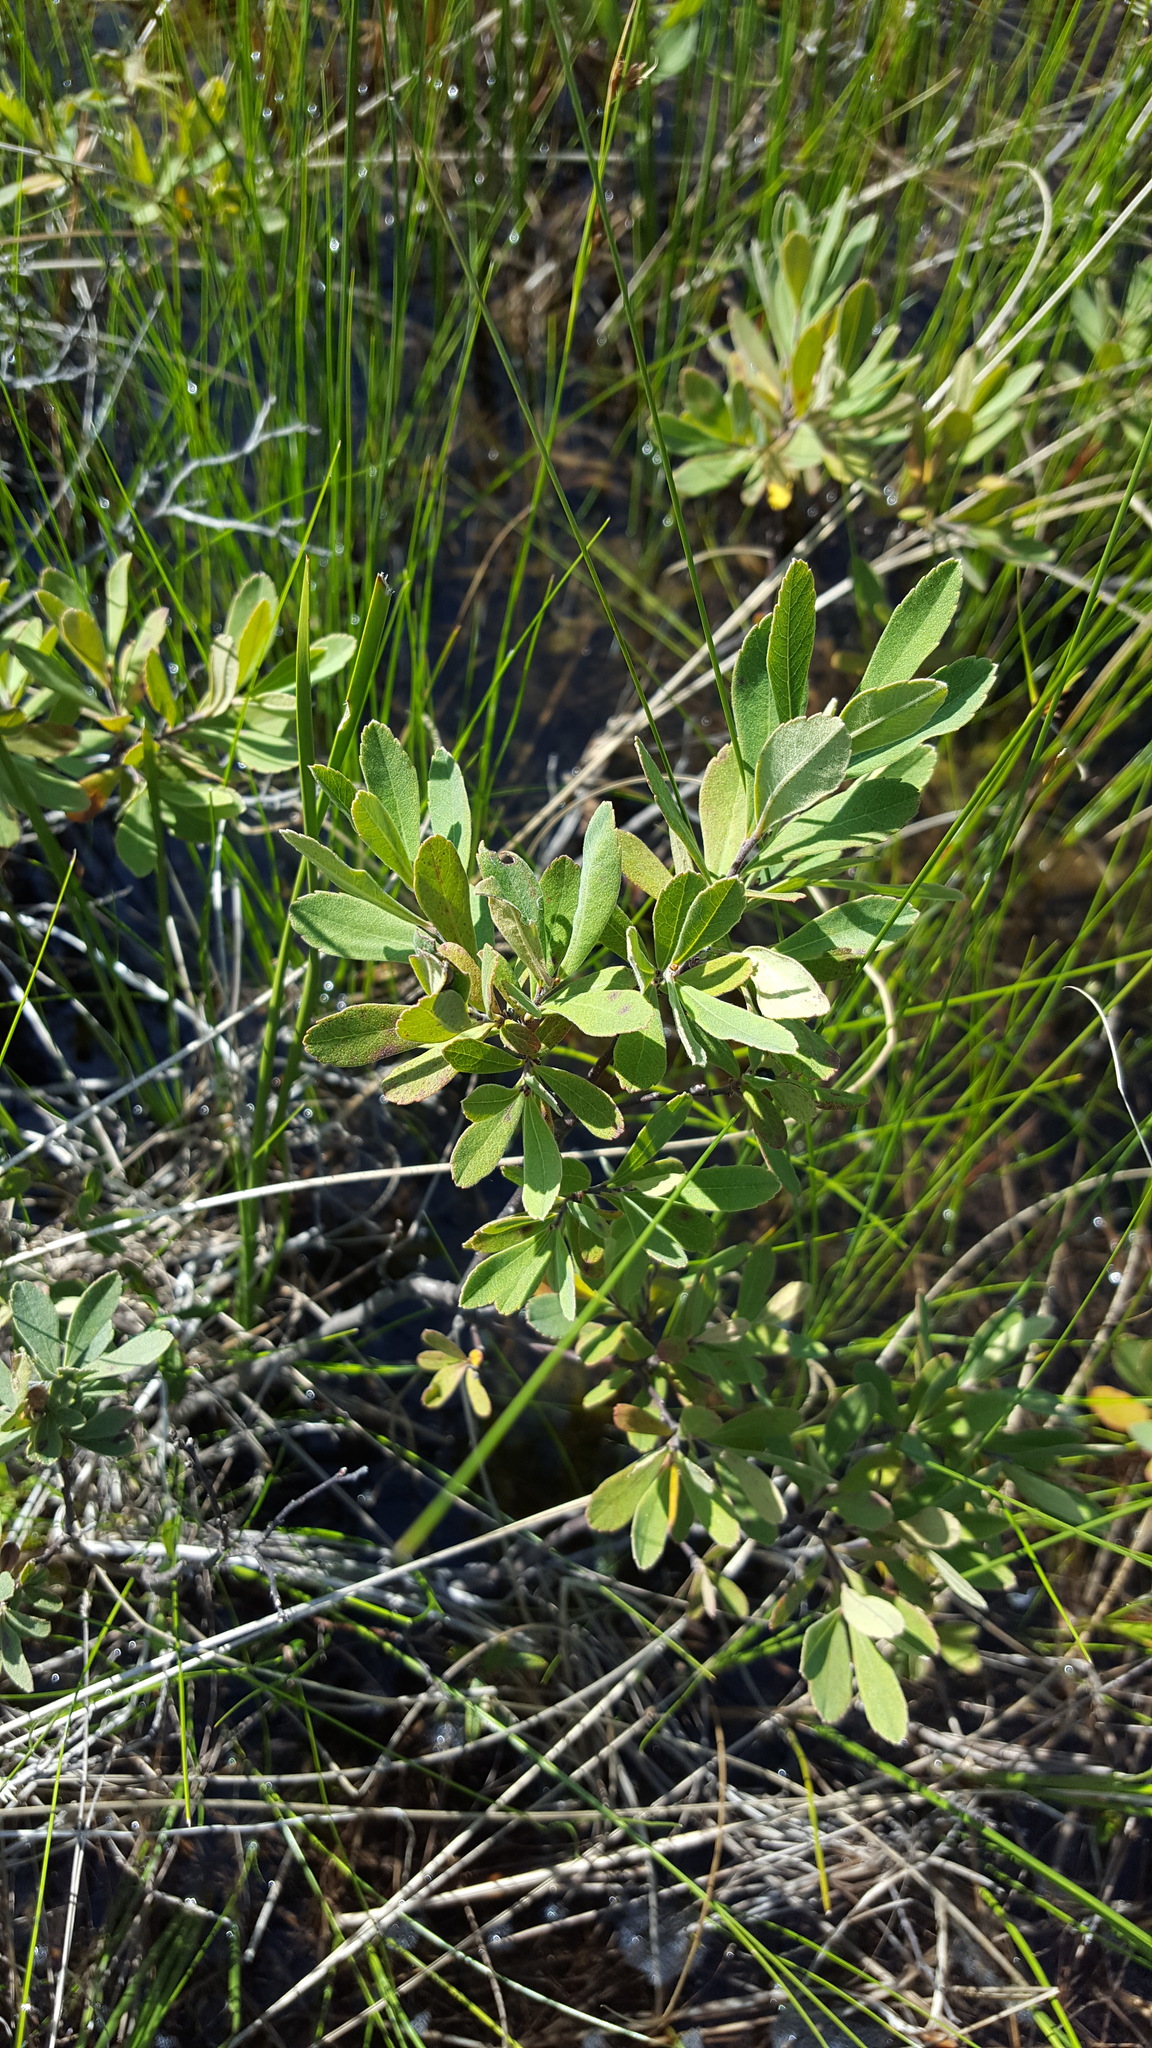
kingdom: Plantae
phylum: Tracheophyta
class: Magnoliopsida
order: Fagales
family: Myricaceae
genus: Myrica
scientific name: Myrica gale
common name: Sweet gale
